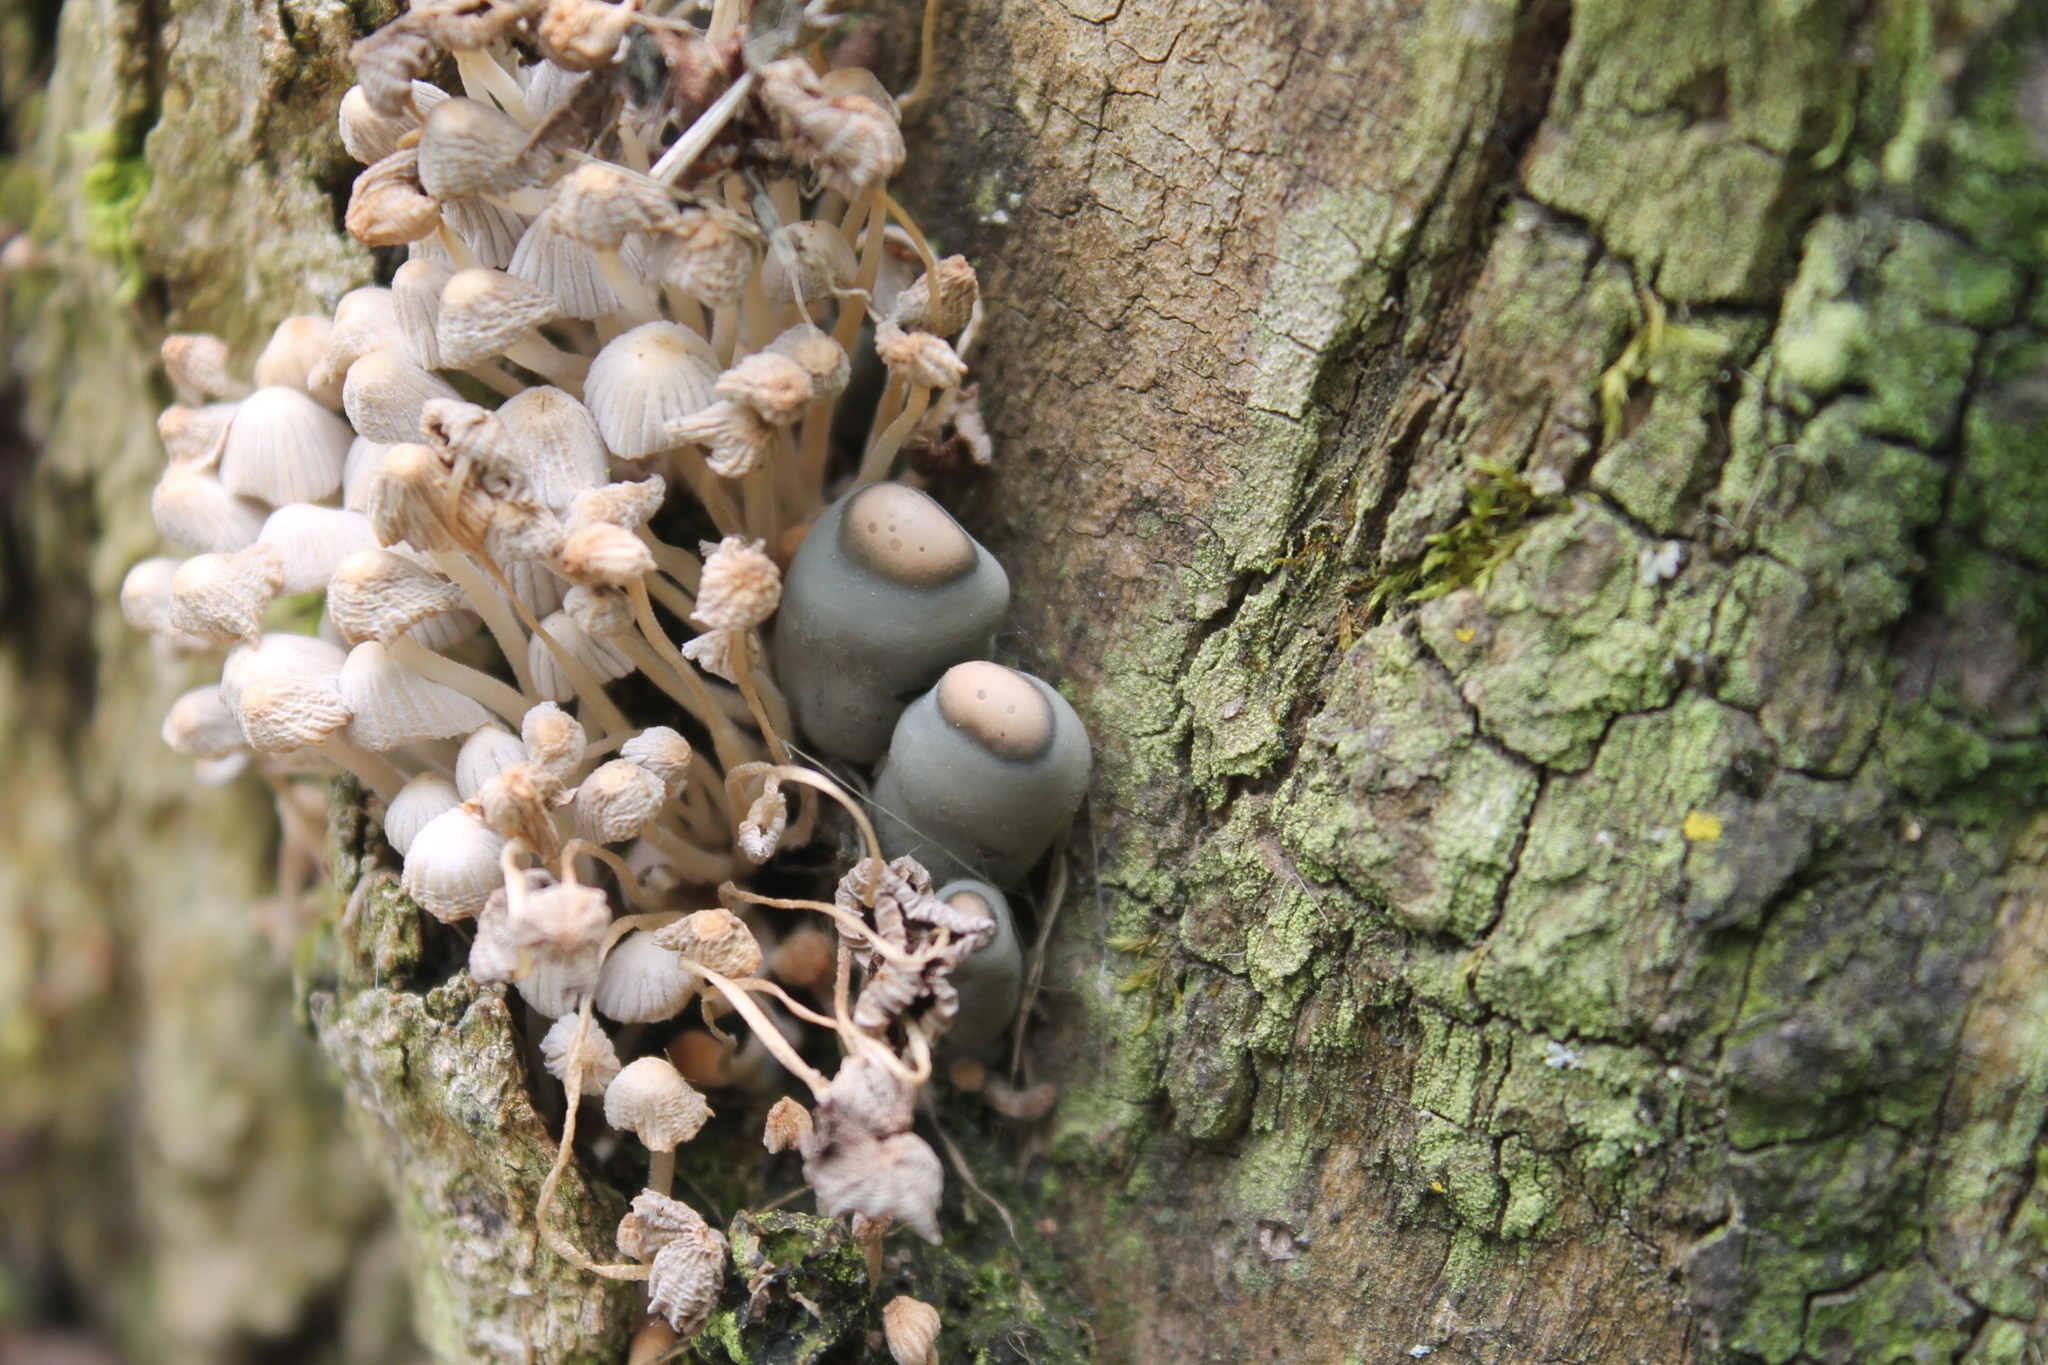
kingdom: Fungi
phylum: Ascomycota
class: Sordariomycetes
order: Xylariales
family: Xylariaceae
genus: Xylaria
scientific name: Xylaria polymorpha
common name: Dead man's fingers
